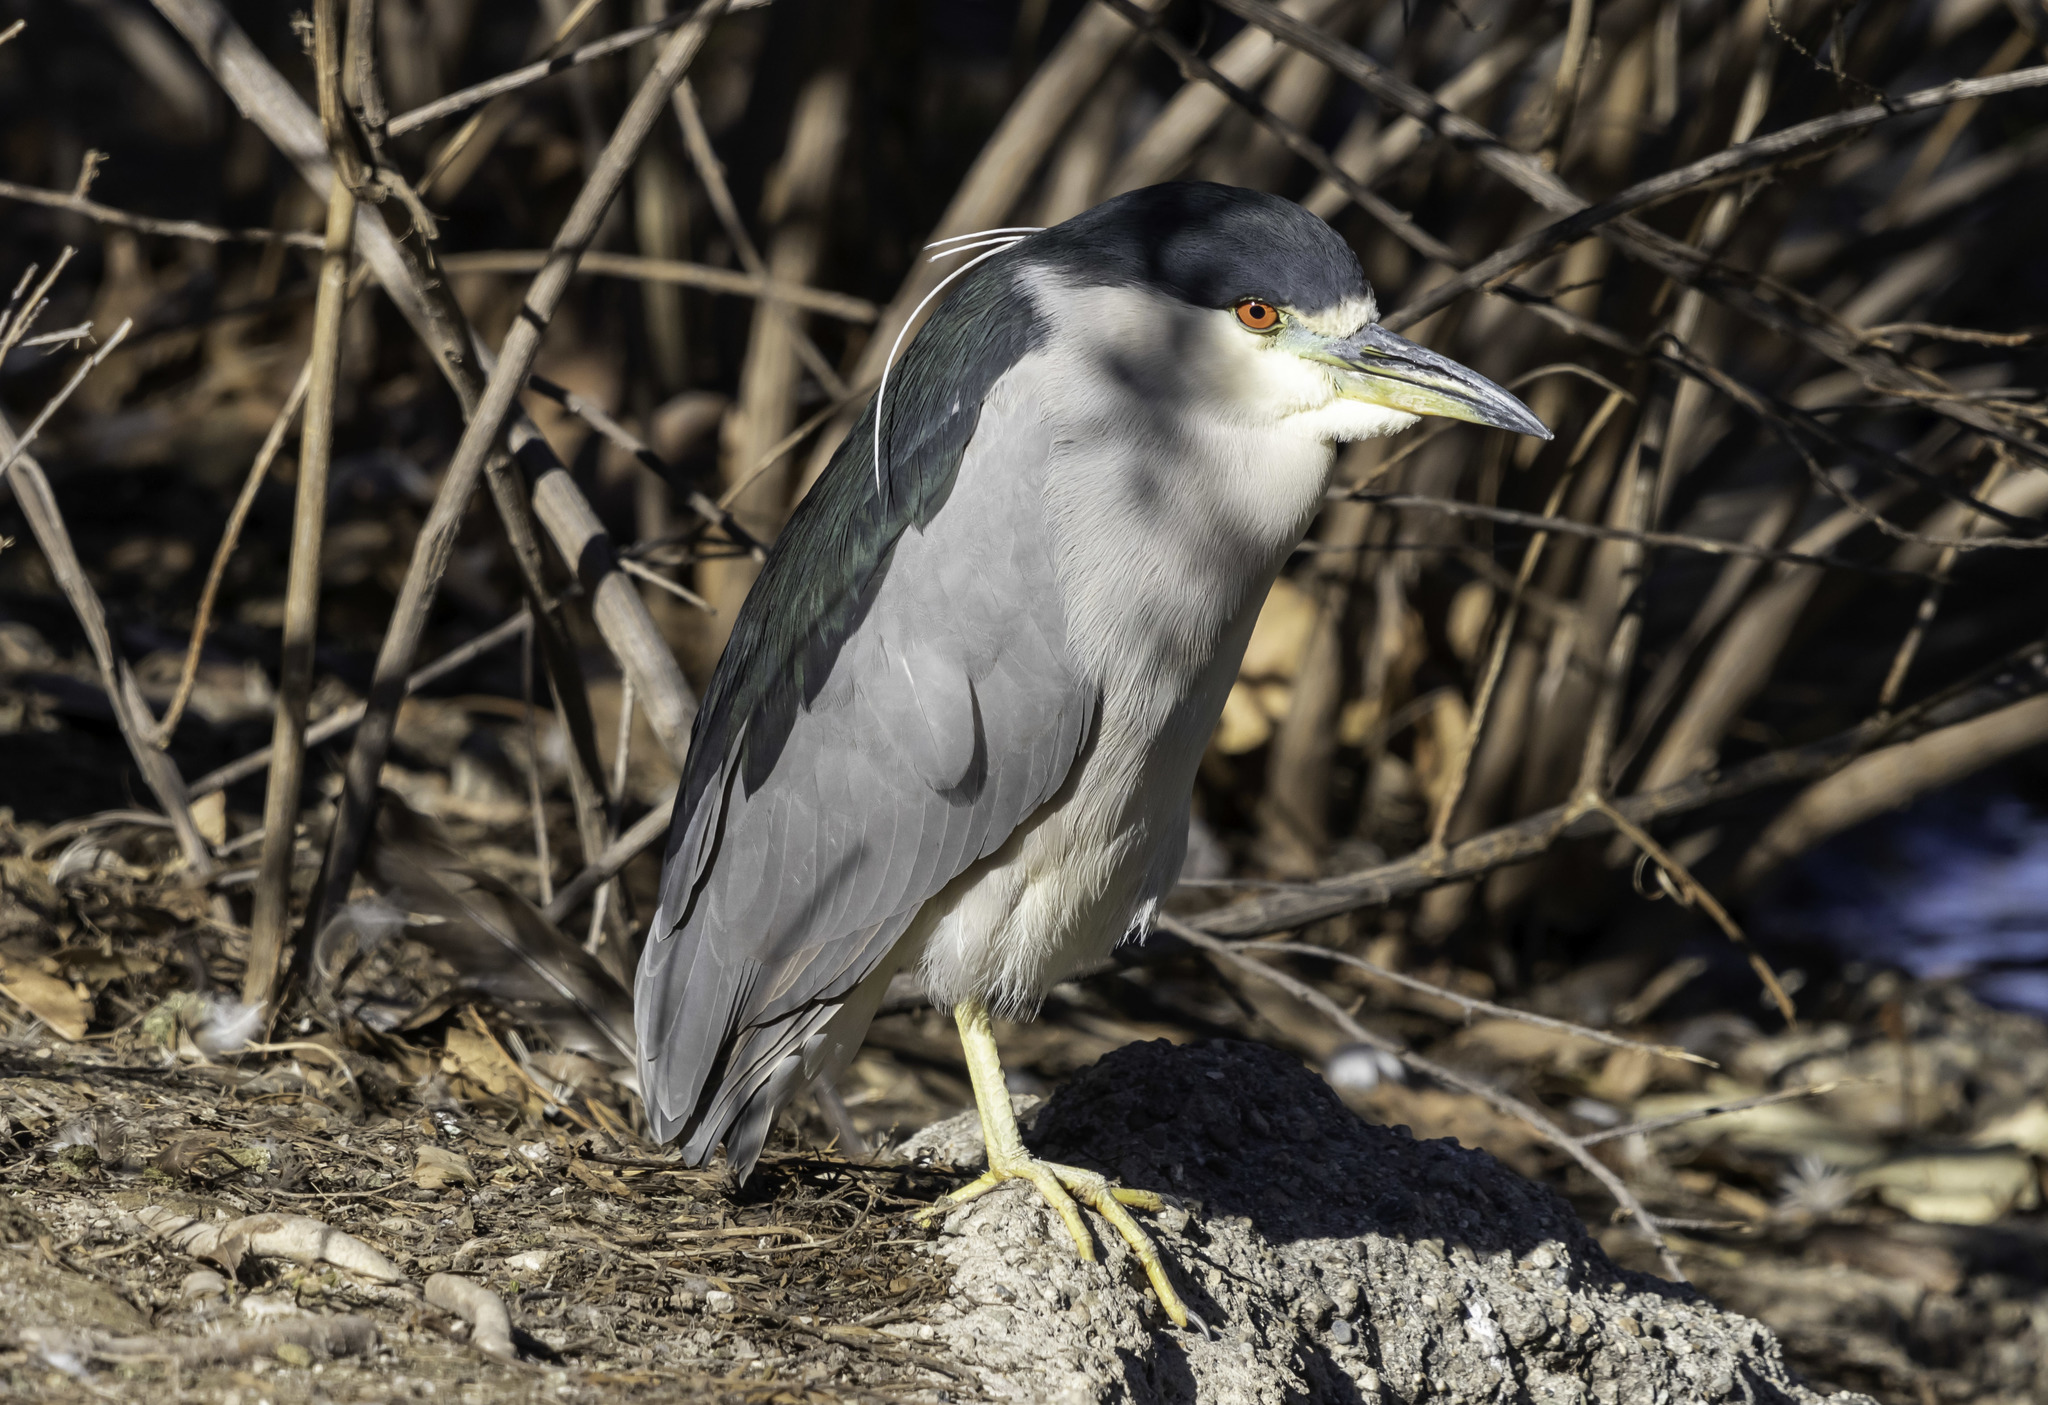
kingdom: Animalia
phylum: Chordata
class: Aves
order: Pelecaniformes
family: Ardeidae
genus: Nycticorax
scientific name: Nycticorax nycticorax
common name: Black-crowned night heron
